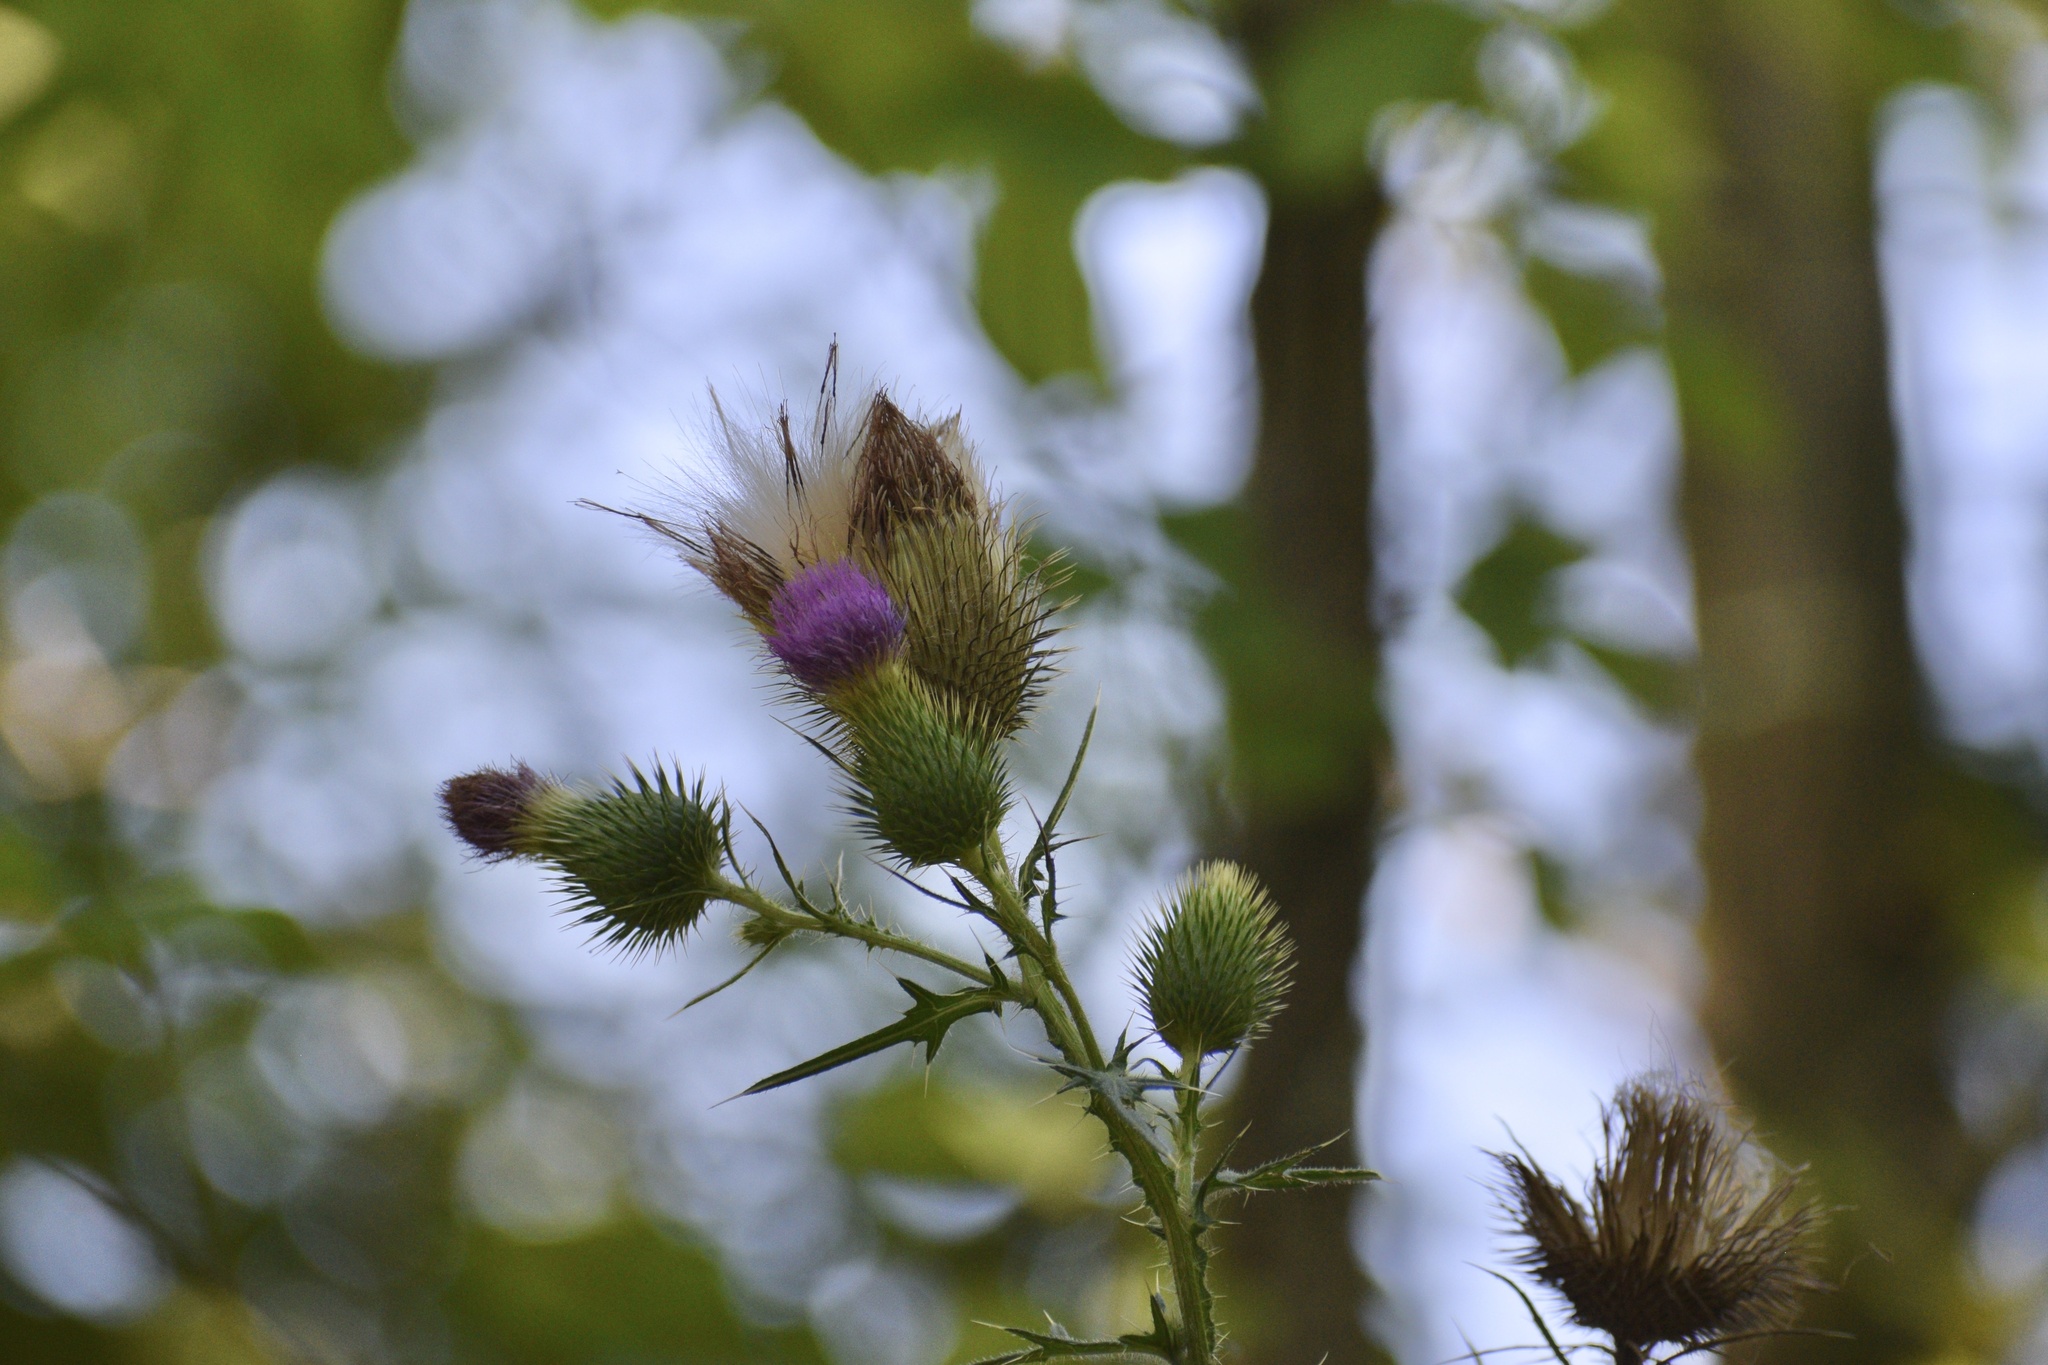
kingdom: Plantae
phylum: Tracheophyta
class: Magnoliopsida
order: Asterales
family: Asteraceae
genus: Cirsium
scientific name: Cirsium vulgare
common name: Bull thistle
